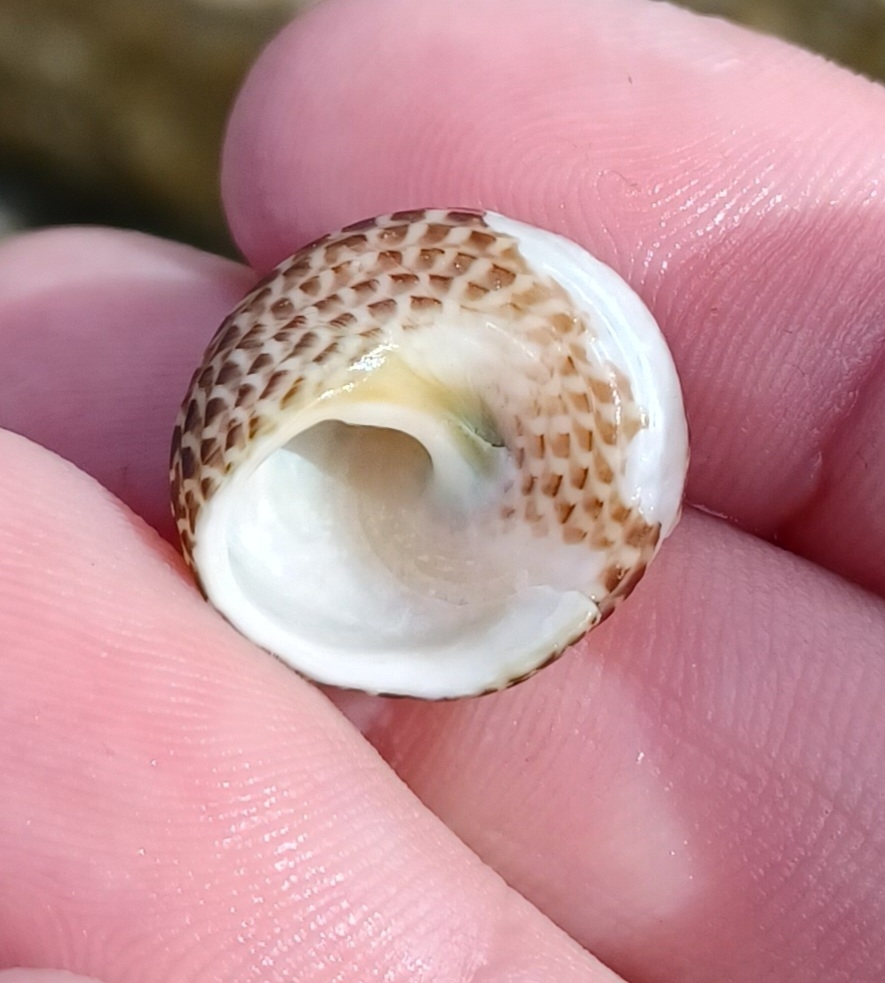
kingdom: Animalia
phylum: Mollusca
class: Gastropoda
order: Trochida
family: Trochidae
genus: Chlorodiloma
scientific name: Chlorodiloma adelaidae
